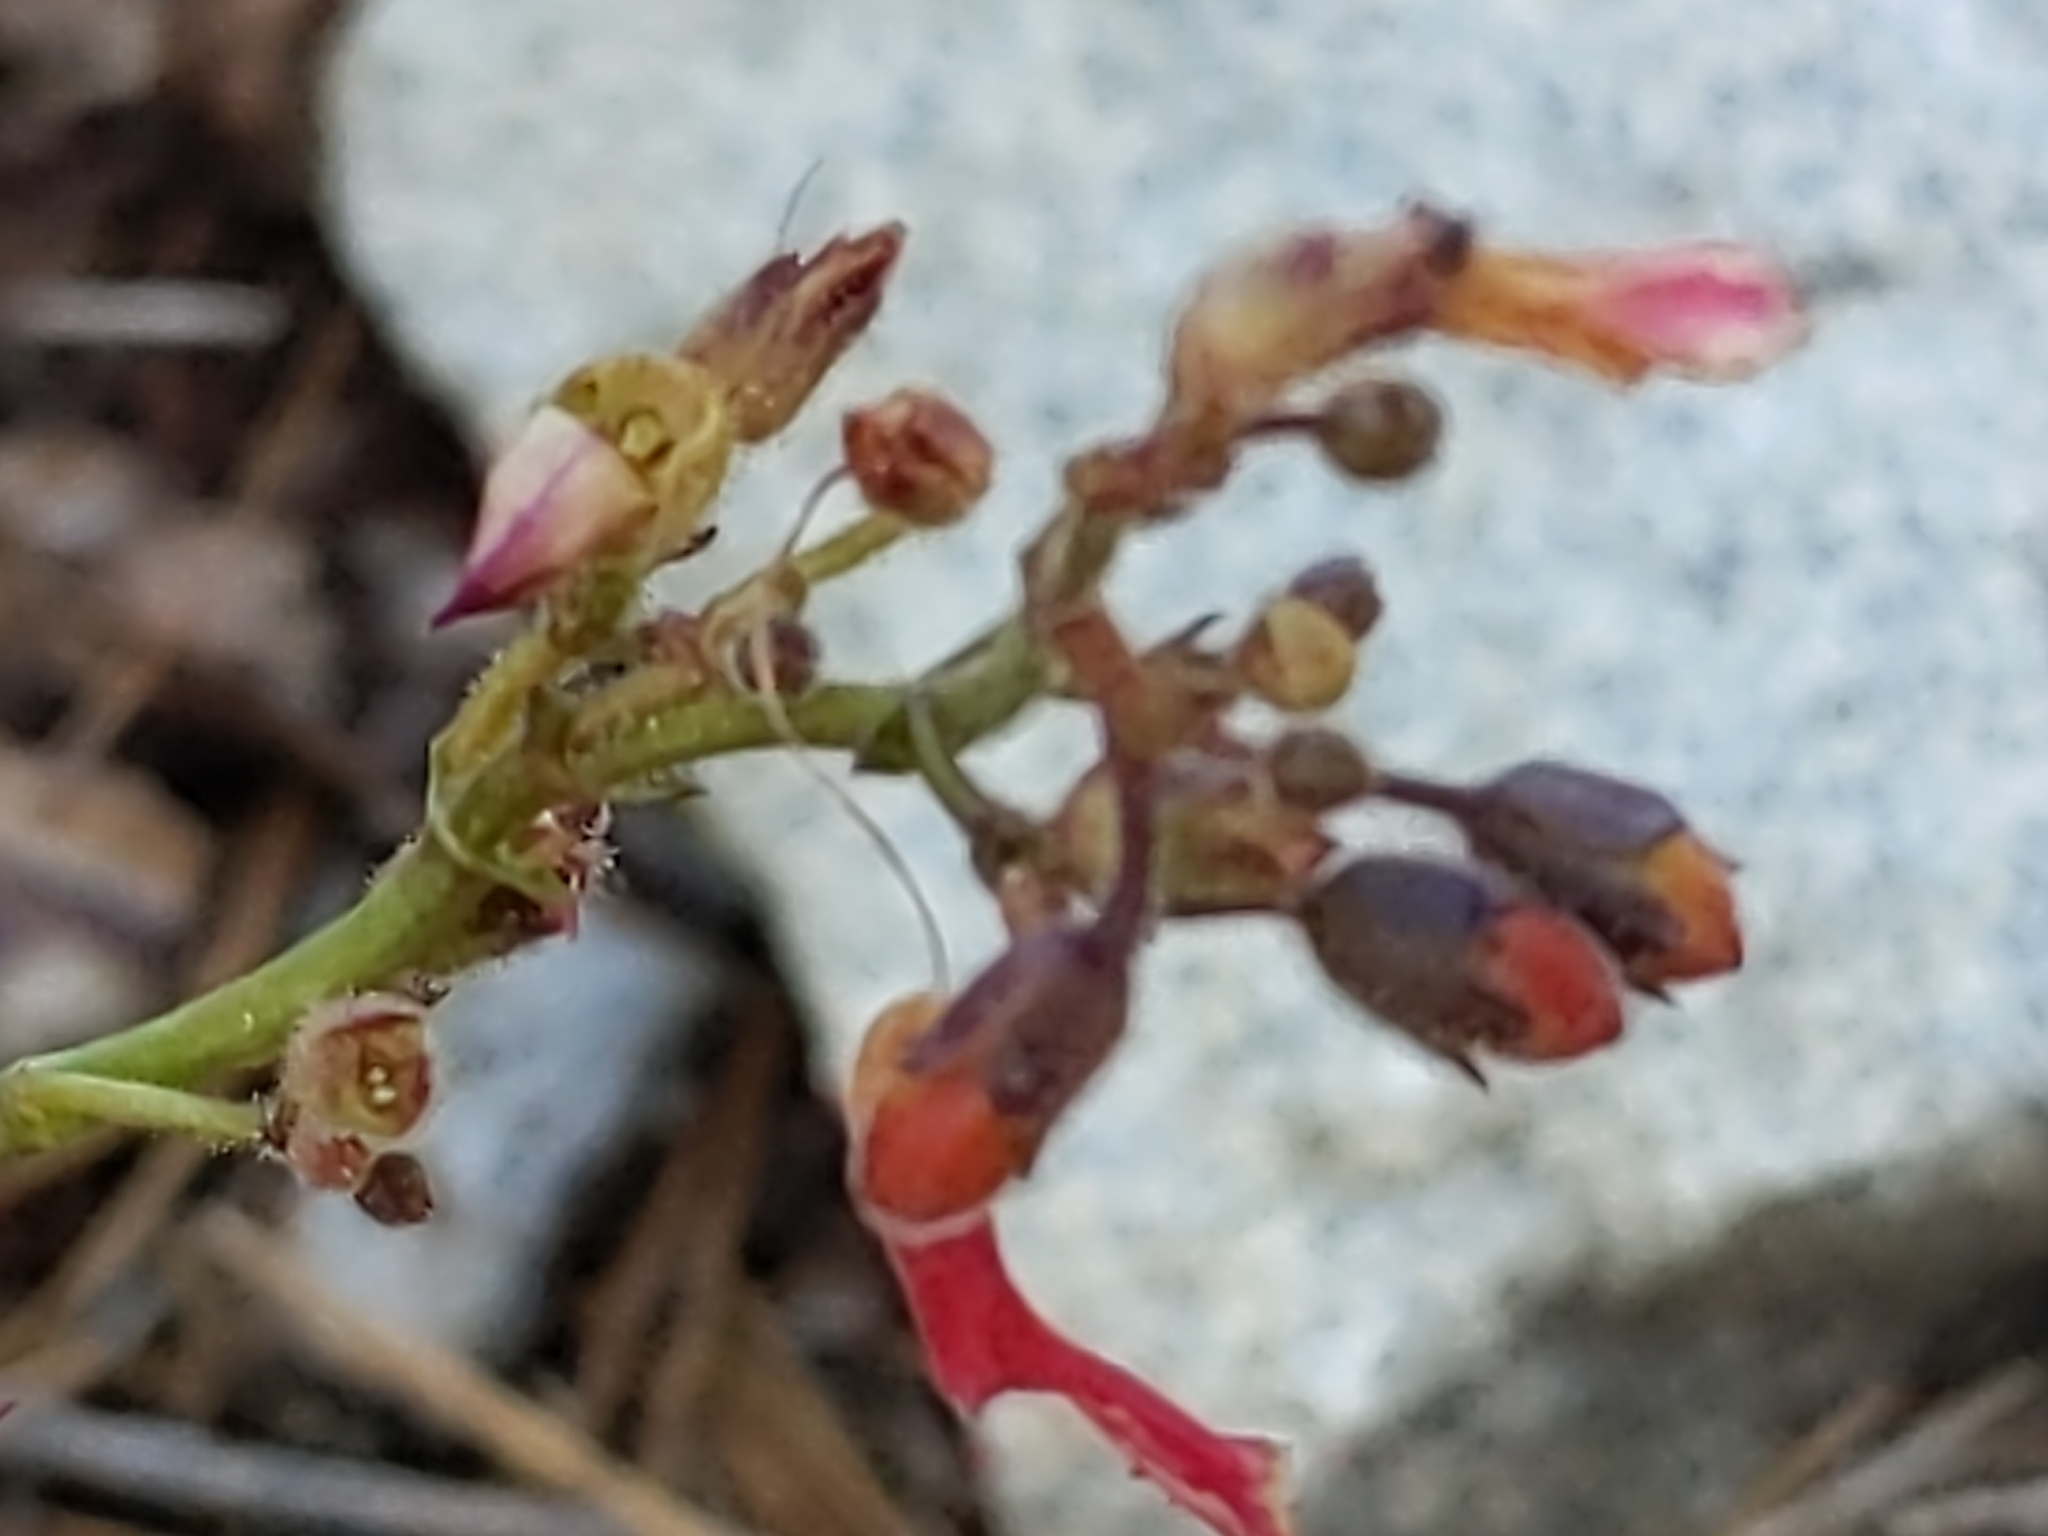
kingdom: Plantae
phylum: Tracheophyta
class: Magnoliopsida
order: Lamiales
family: Plantaginaceae
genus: Penstemon
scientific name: Penstemon rostriflorus
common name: Bridges's penstemon
